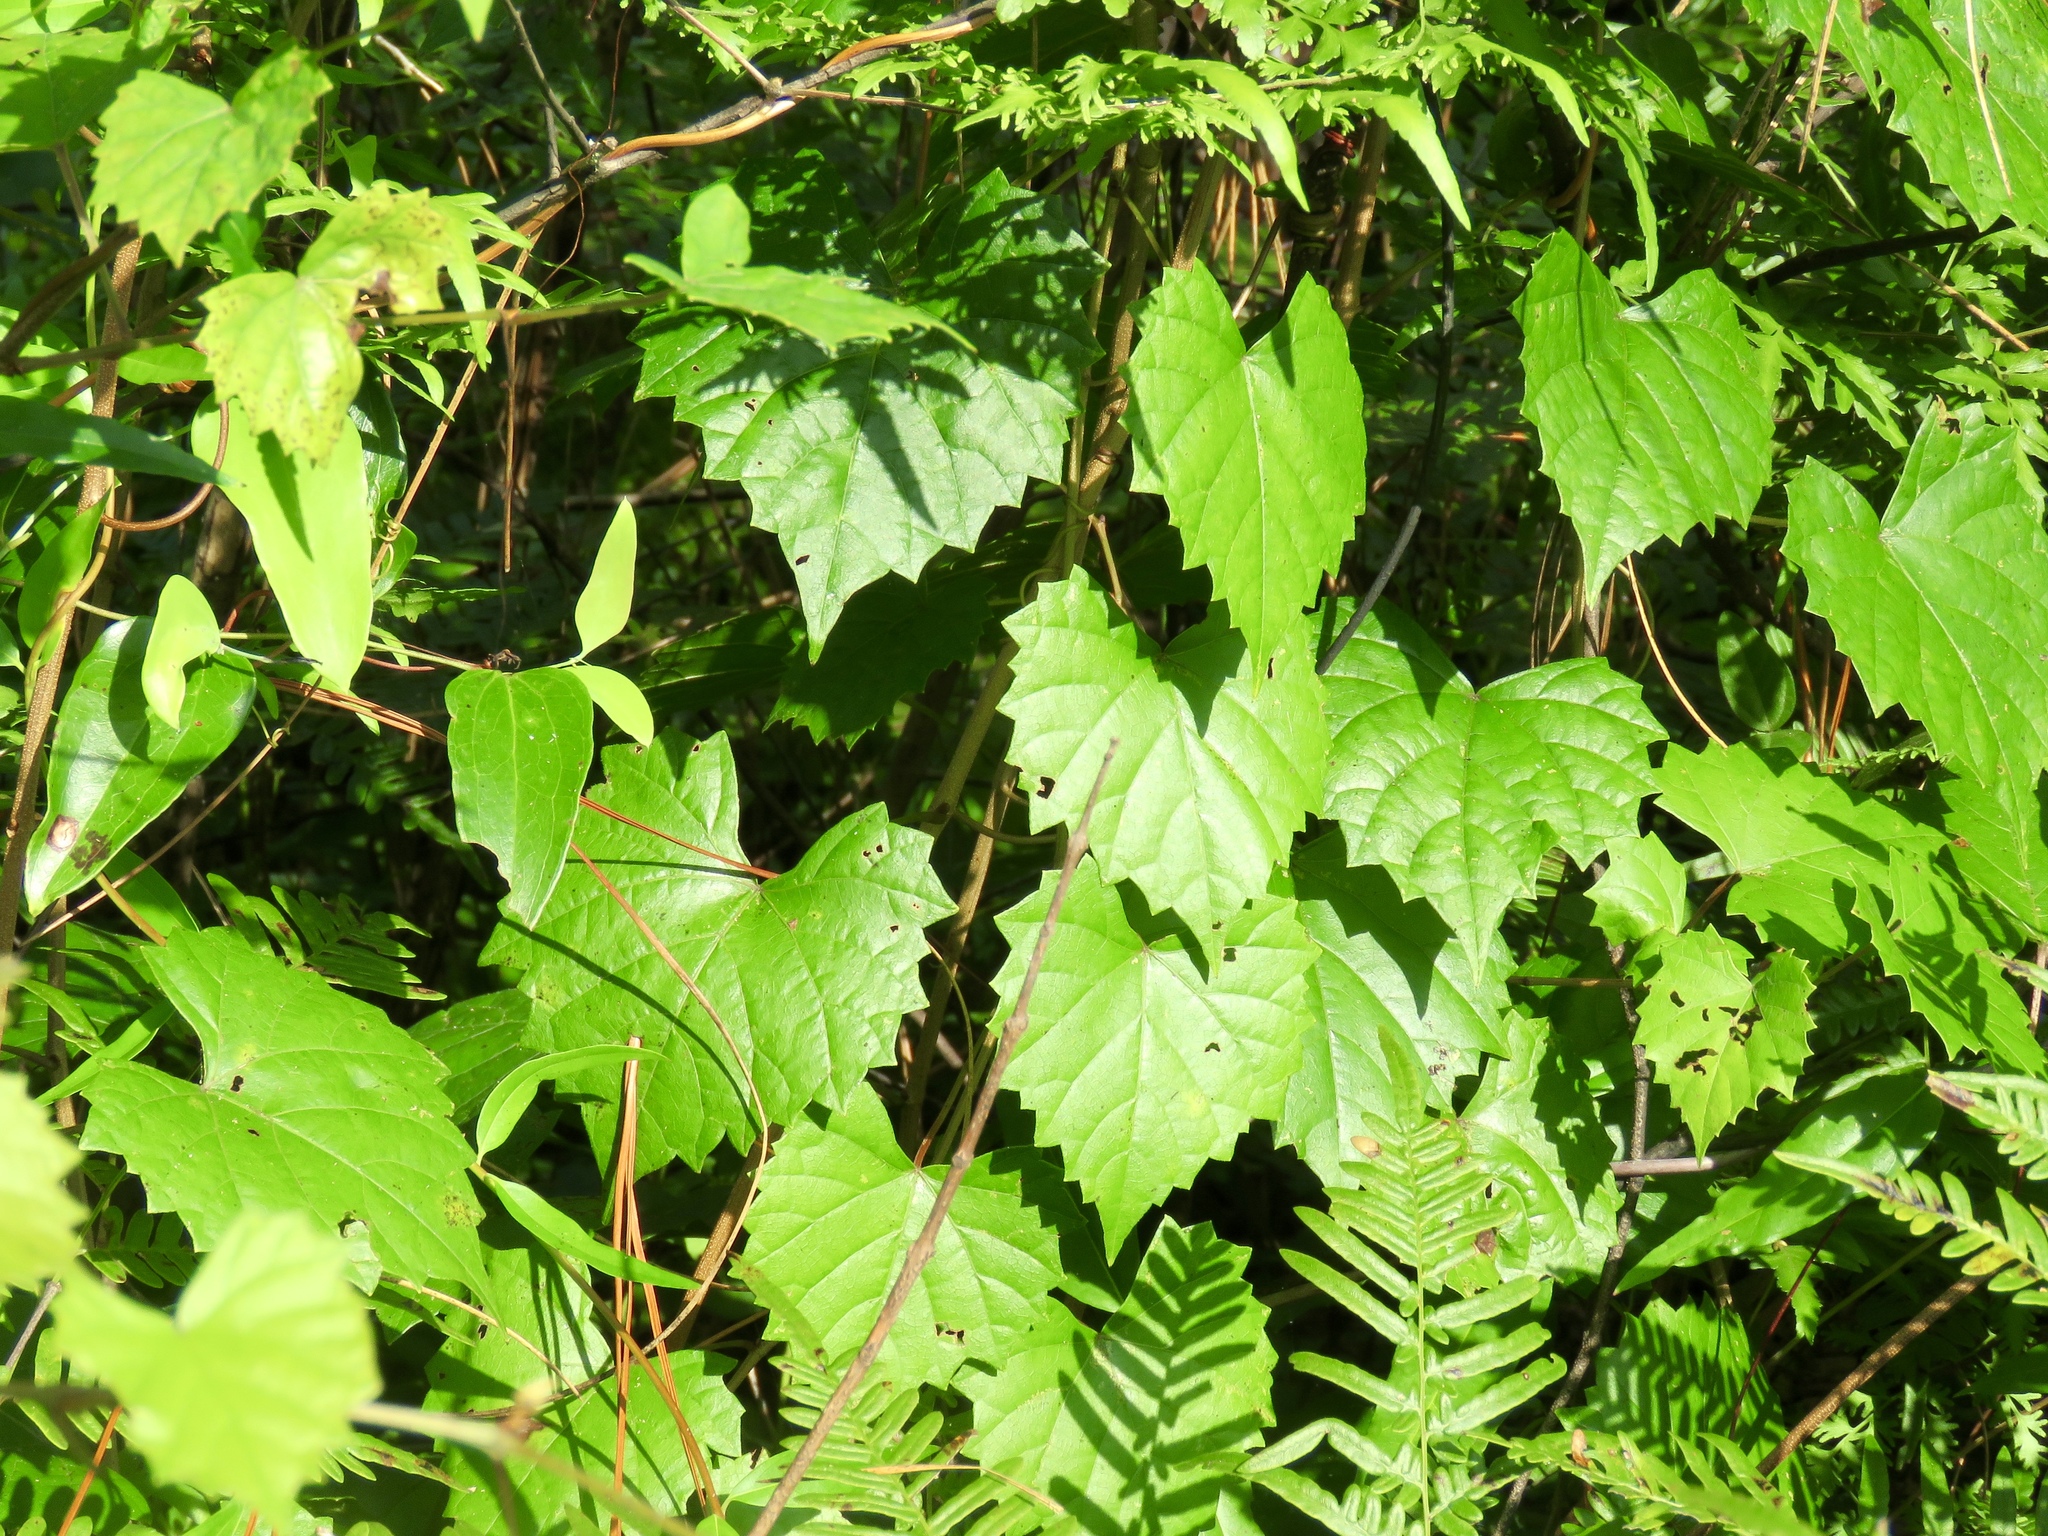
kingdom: Plantae
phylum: Tracheophyta
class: Magnoliopsida
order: Vitales
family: Vitaceae
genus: Vitis
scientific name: Vitis rotundifolia
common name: Muscadine grape
